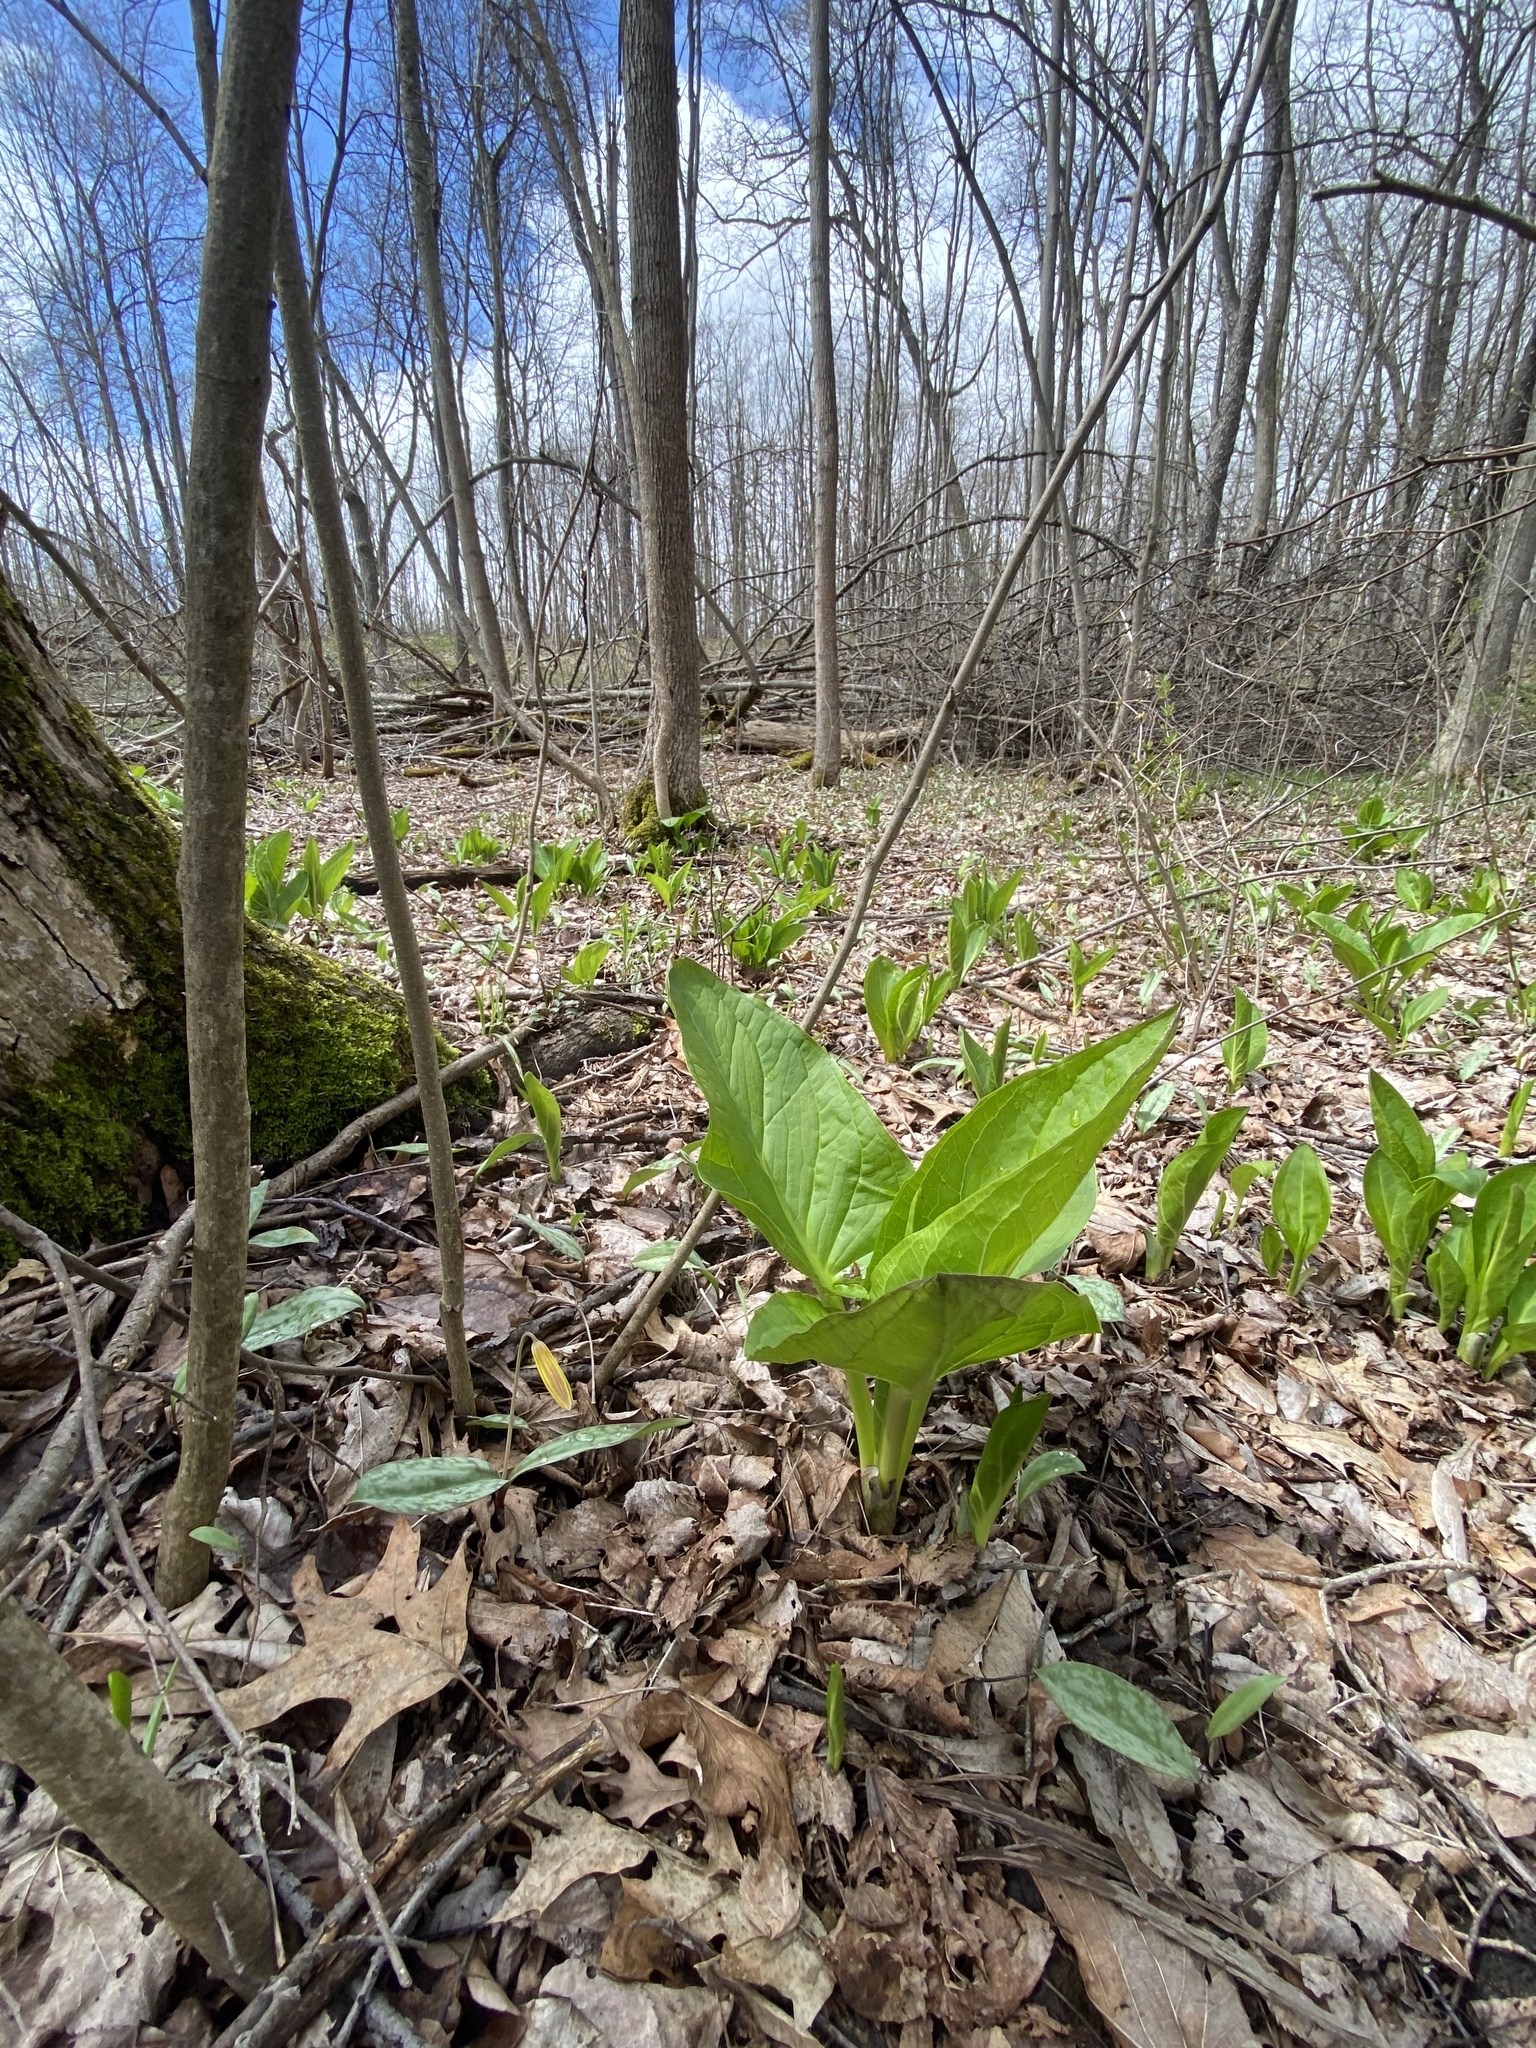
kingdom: Plantae
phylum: Tracheophyta
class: Liliopsida
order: Alismatales
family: Araceae
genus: Symplocarpus
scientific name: Symplocarpus foetidus
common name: Eastern skunk cabbage
